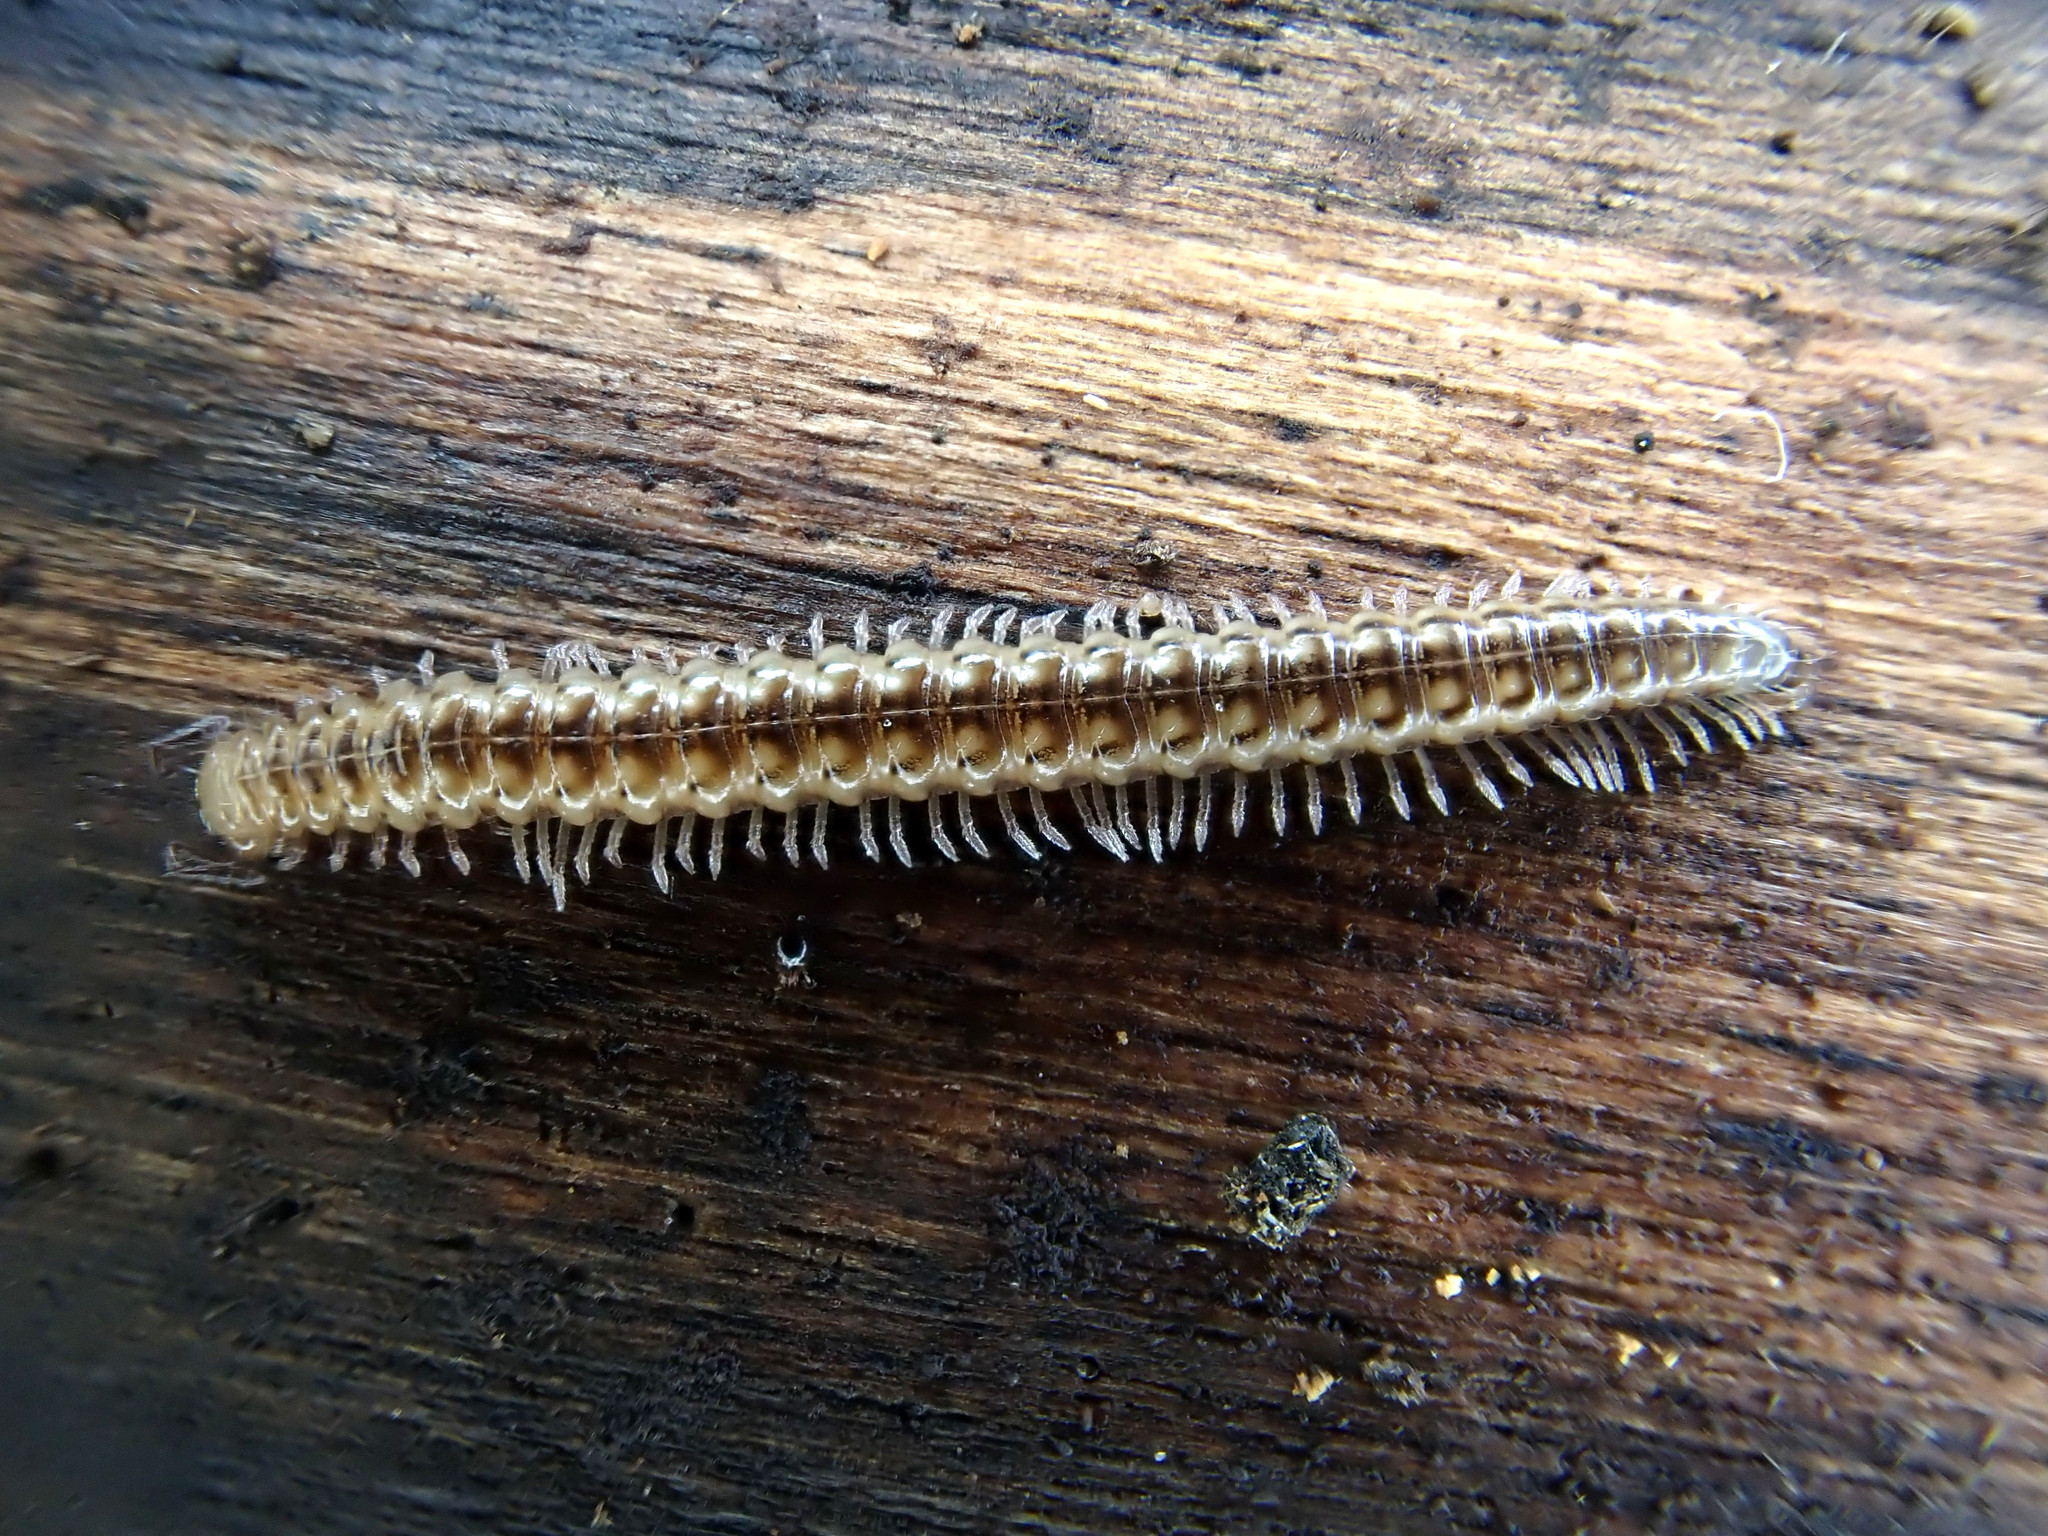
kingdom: Animalia
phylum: Arthropoda
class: Diplopoda
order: Chordeumatida
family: Craspedosomatidae
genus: Craspedosoma
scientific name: Craspedosoma rawlinsii
